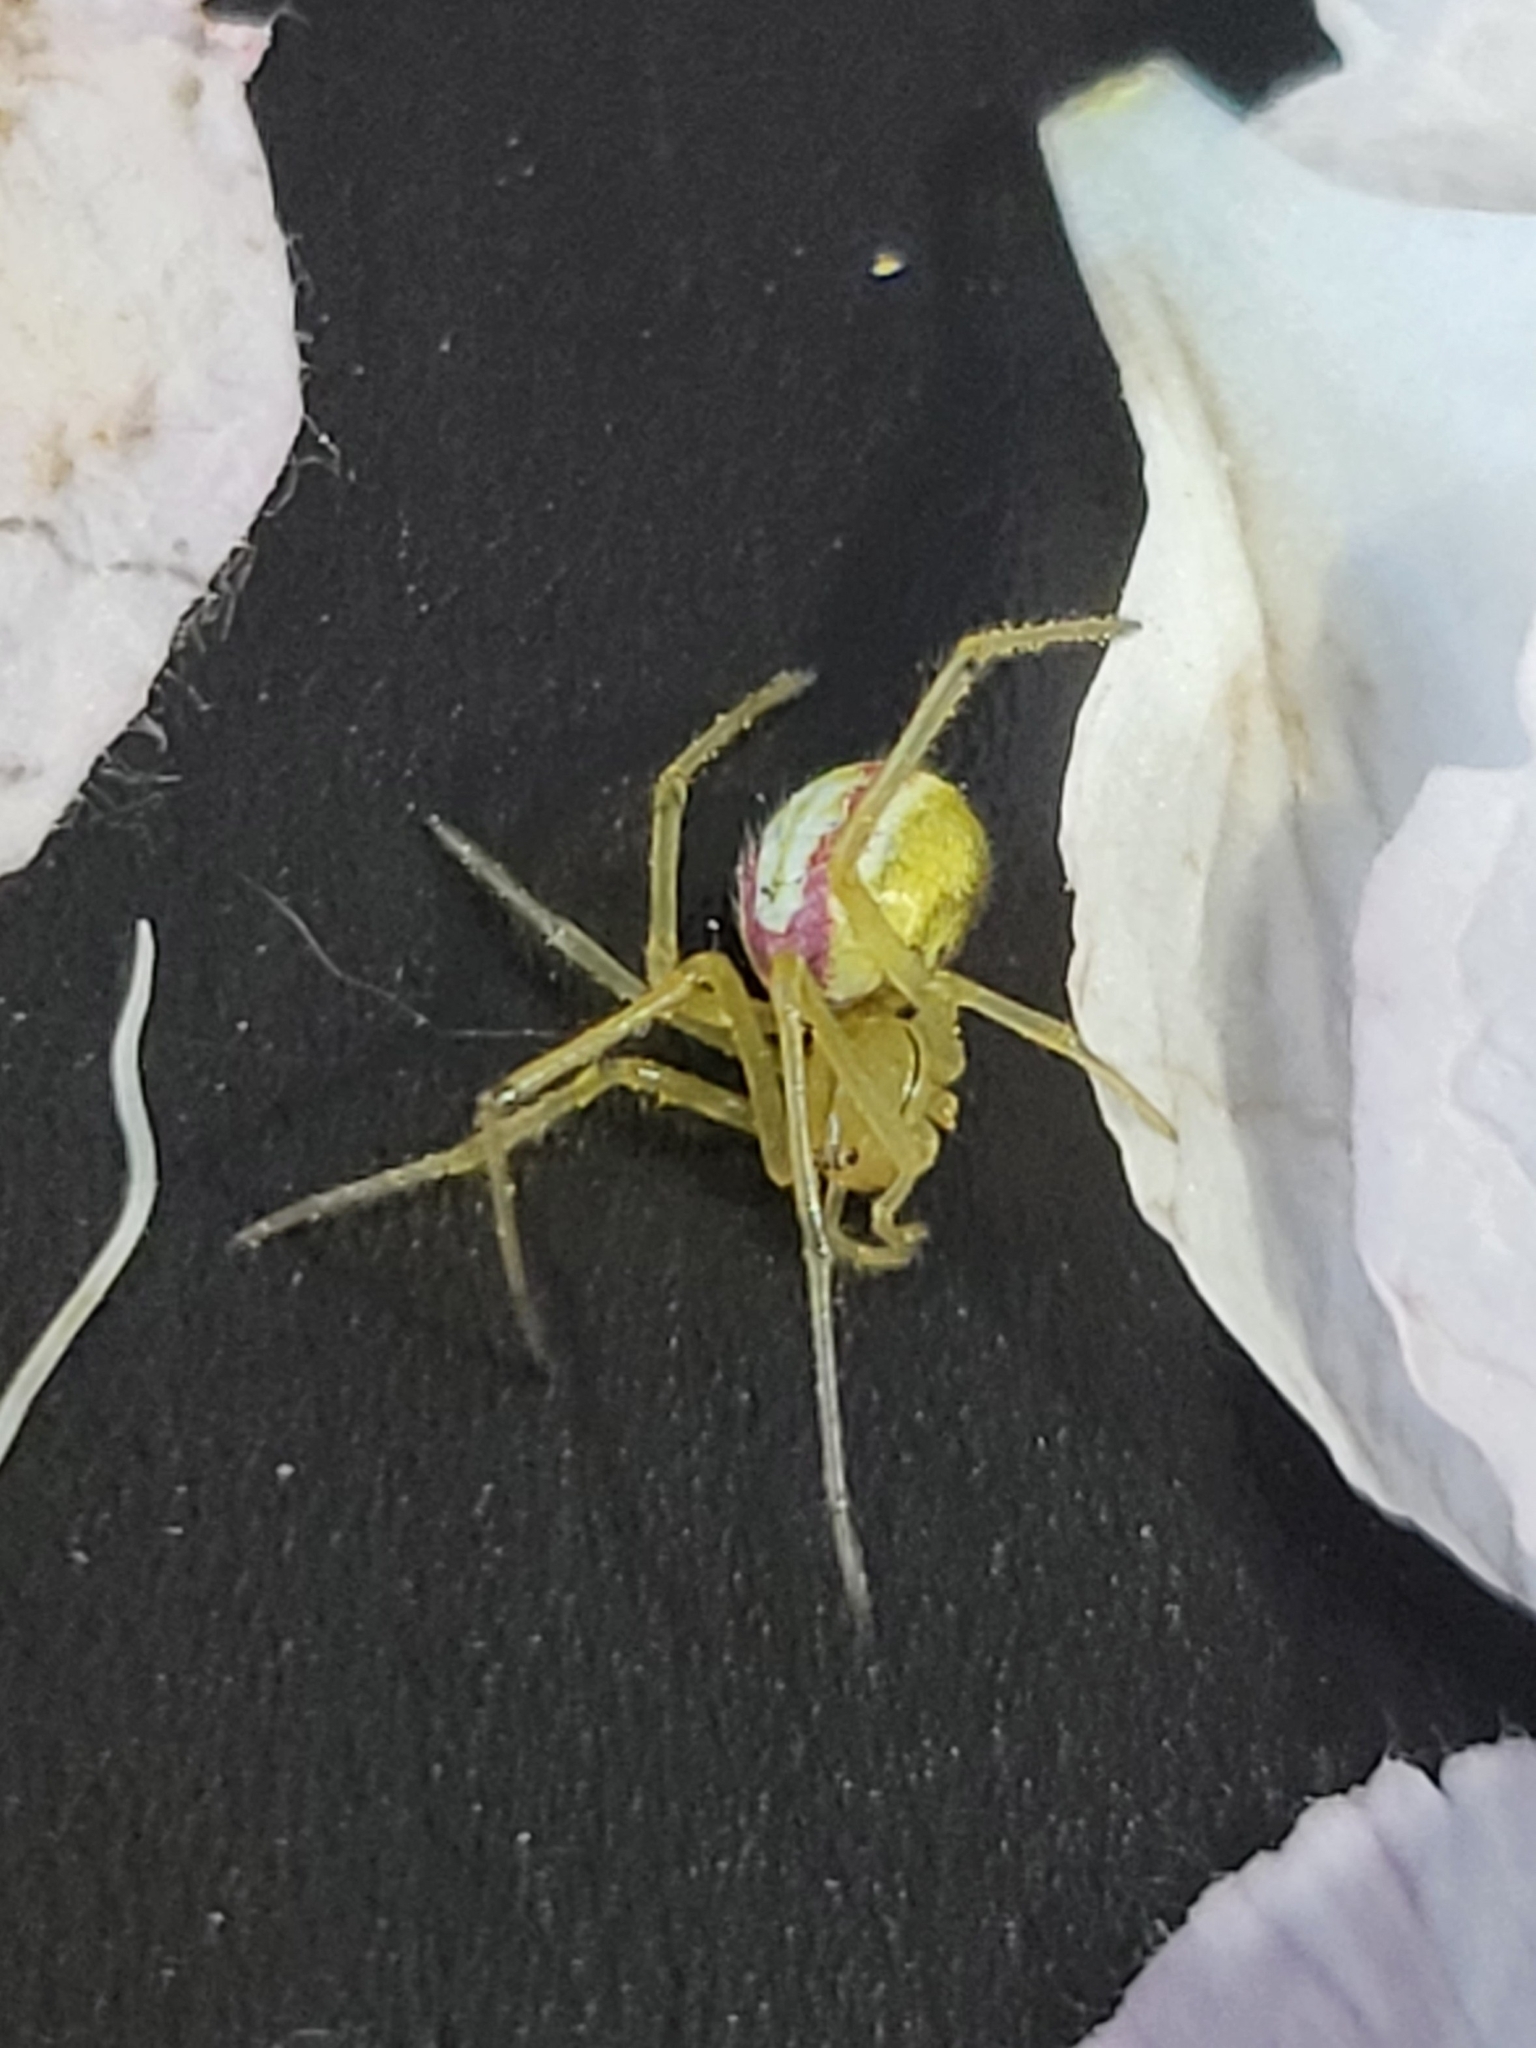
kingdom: Animalia
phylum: Arthropoda
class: Arachnida
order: Araneae
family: Theridiidae
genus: Enoplognatha
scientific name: Enoplognatha ovata
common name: Common candy-striped spider
